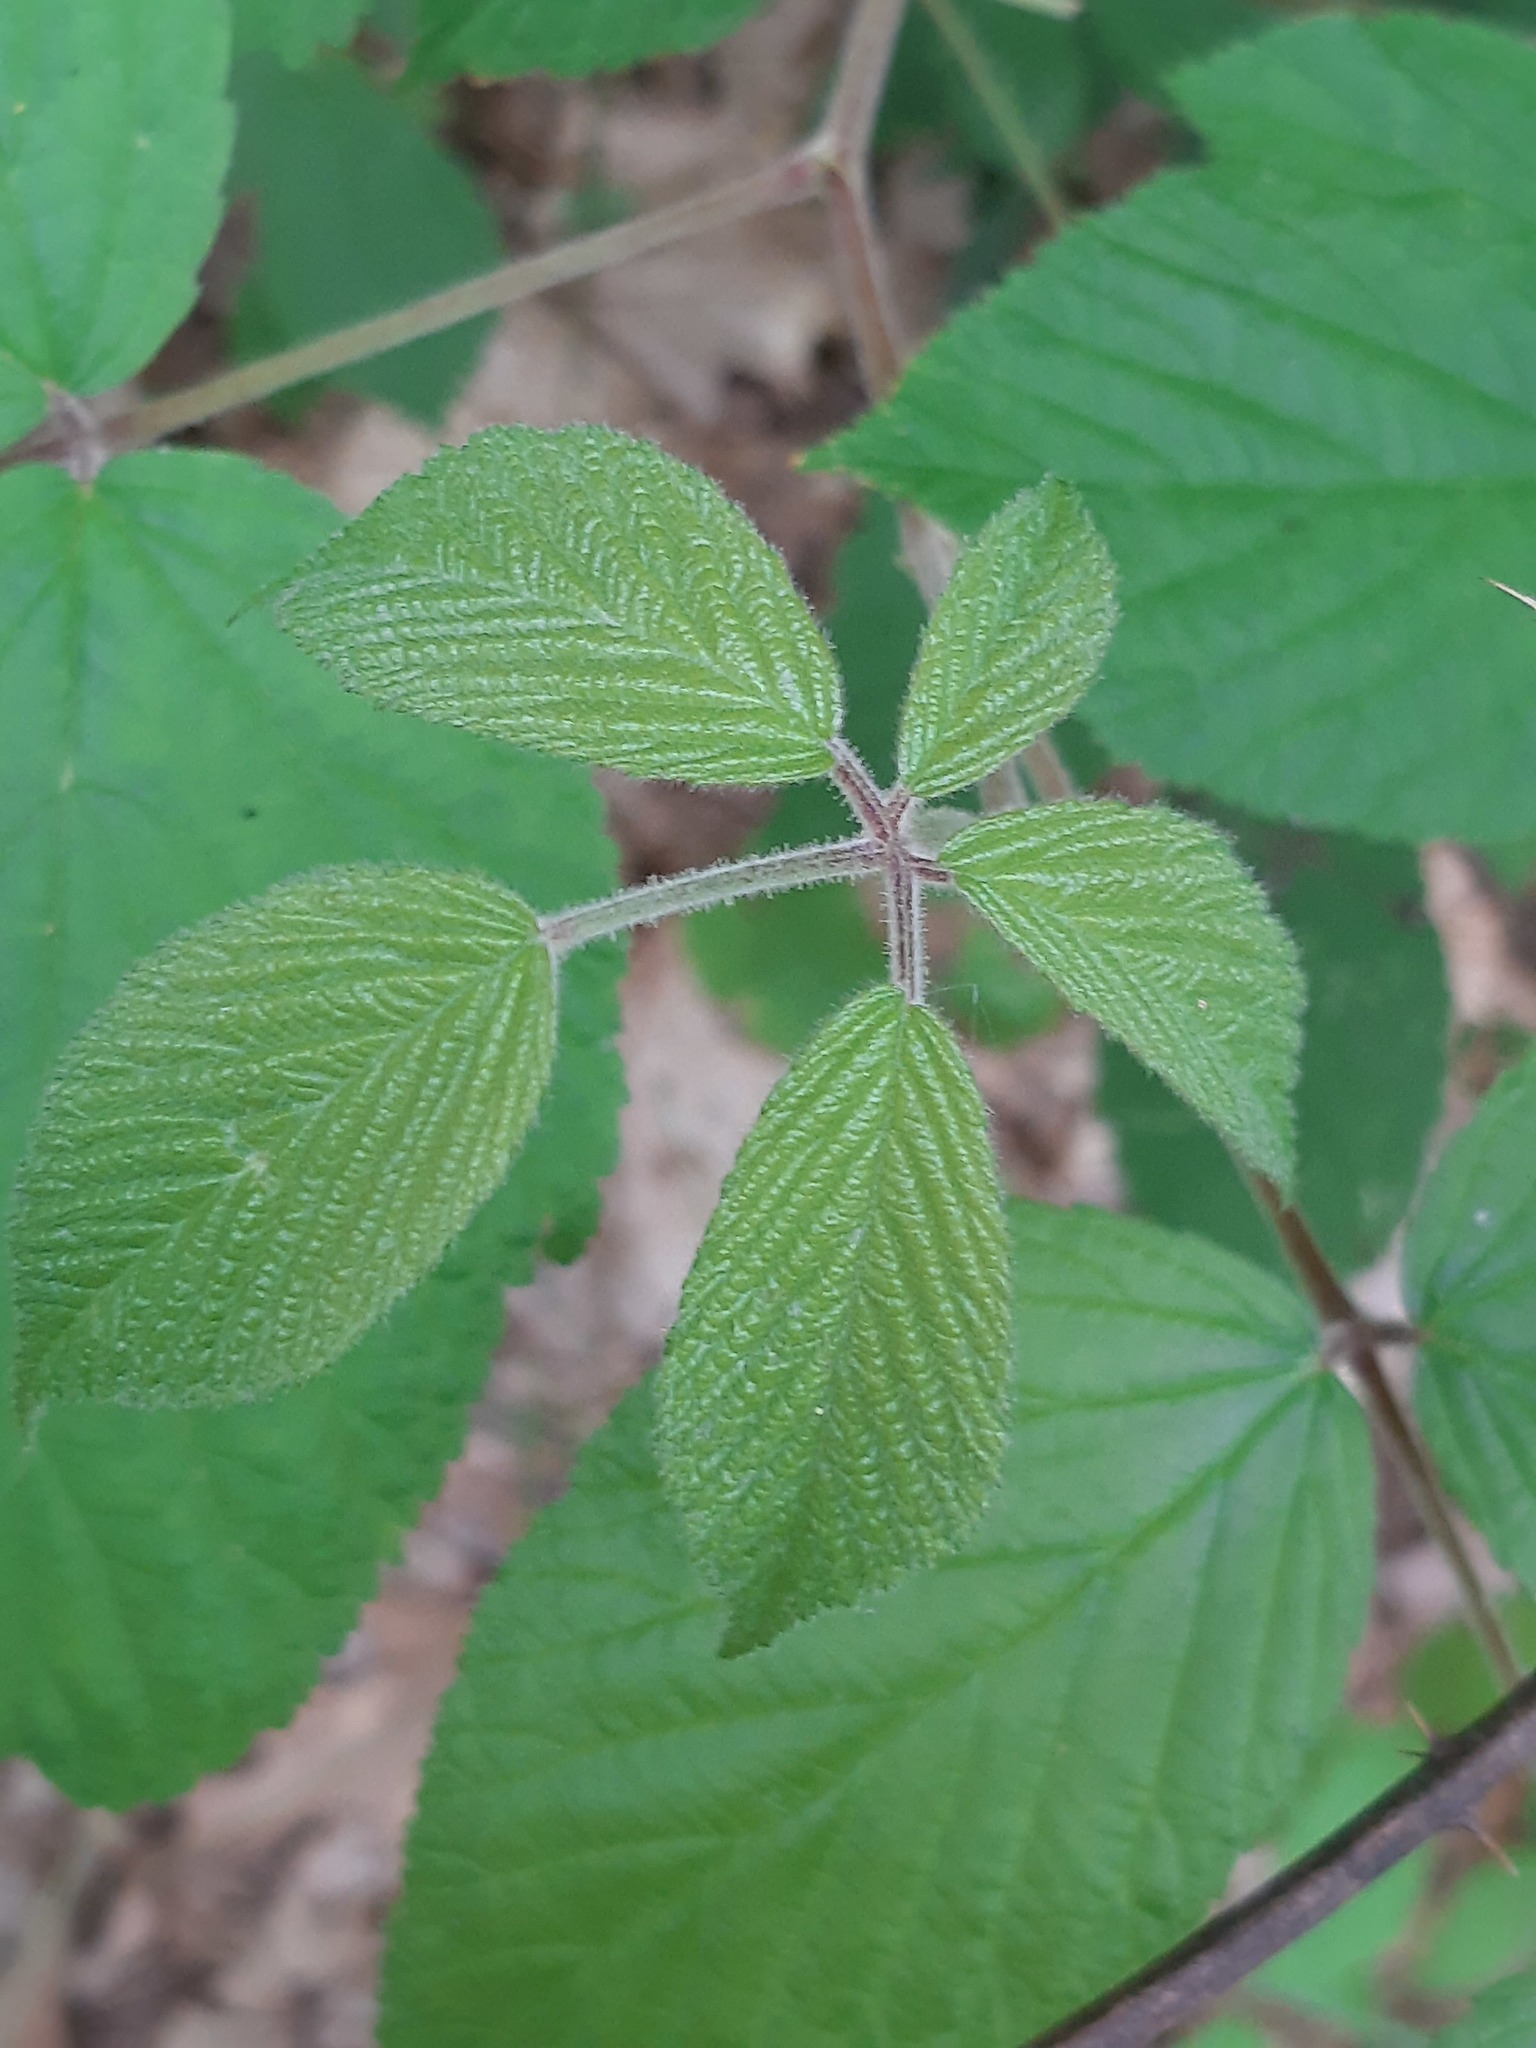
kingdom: Plantae
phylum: Tracheophyta
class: Magnoliopsida
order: Rosales
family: Rosaceae
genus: Rubus
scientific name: Rubus allegheniensis
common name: Allegheny blackberry
